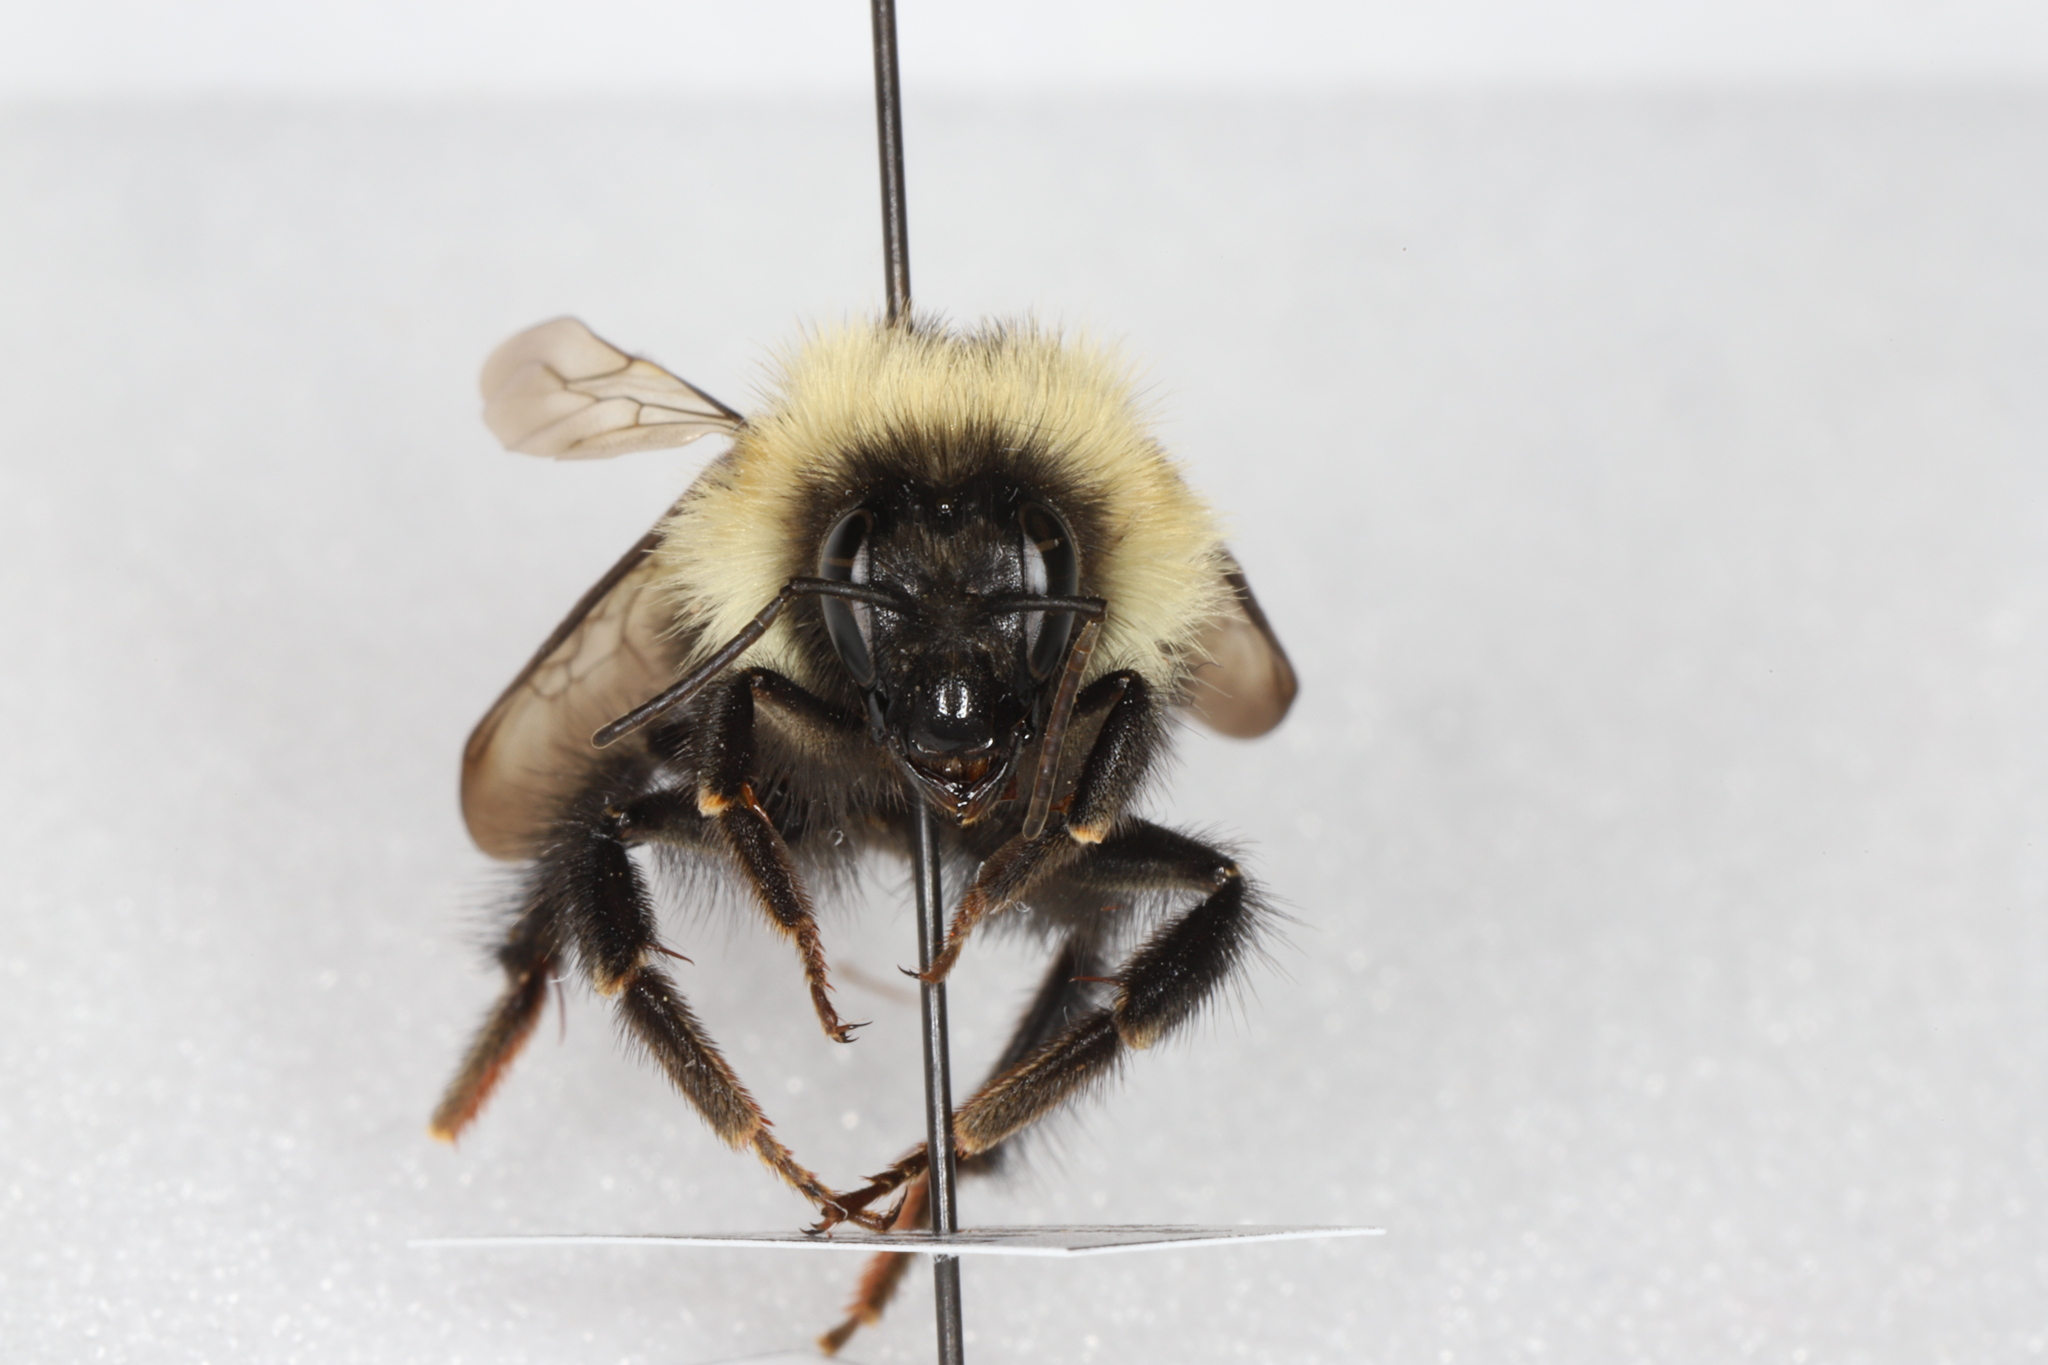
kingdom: Animalia
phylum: Arthropoda
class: Insecta
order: Hymenoptera
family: Apidae
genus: Bombus
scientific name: Bombus vagans
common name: Half-black bumble bee
